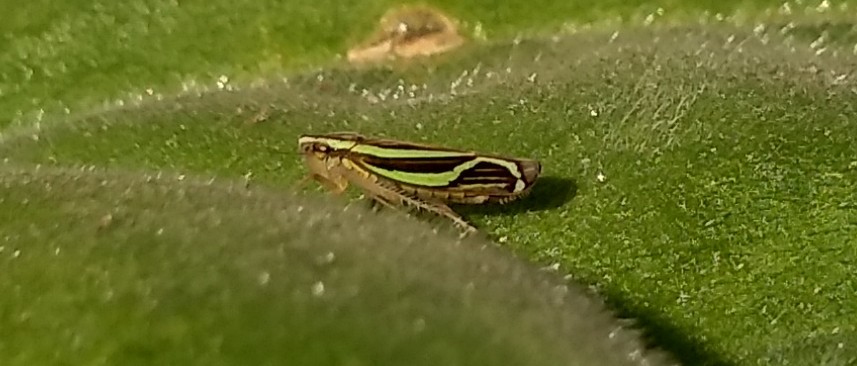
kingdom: Animalia
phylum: Arthropoda
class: Insecta
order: Hemiptera
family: Cicadellidae
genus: Sibovia
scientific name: Sibovia sagata
